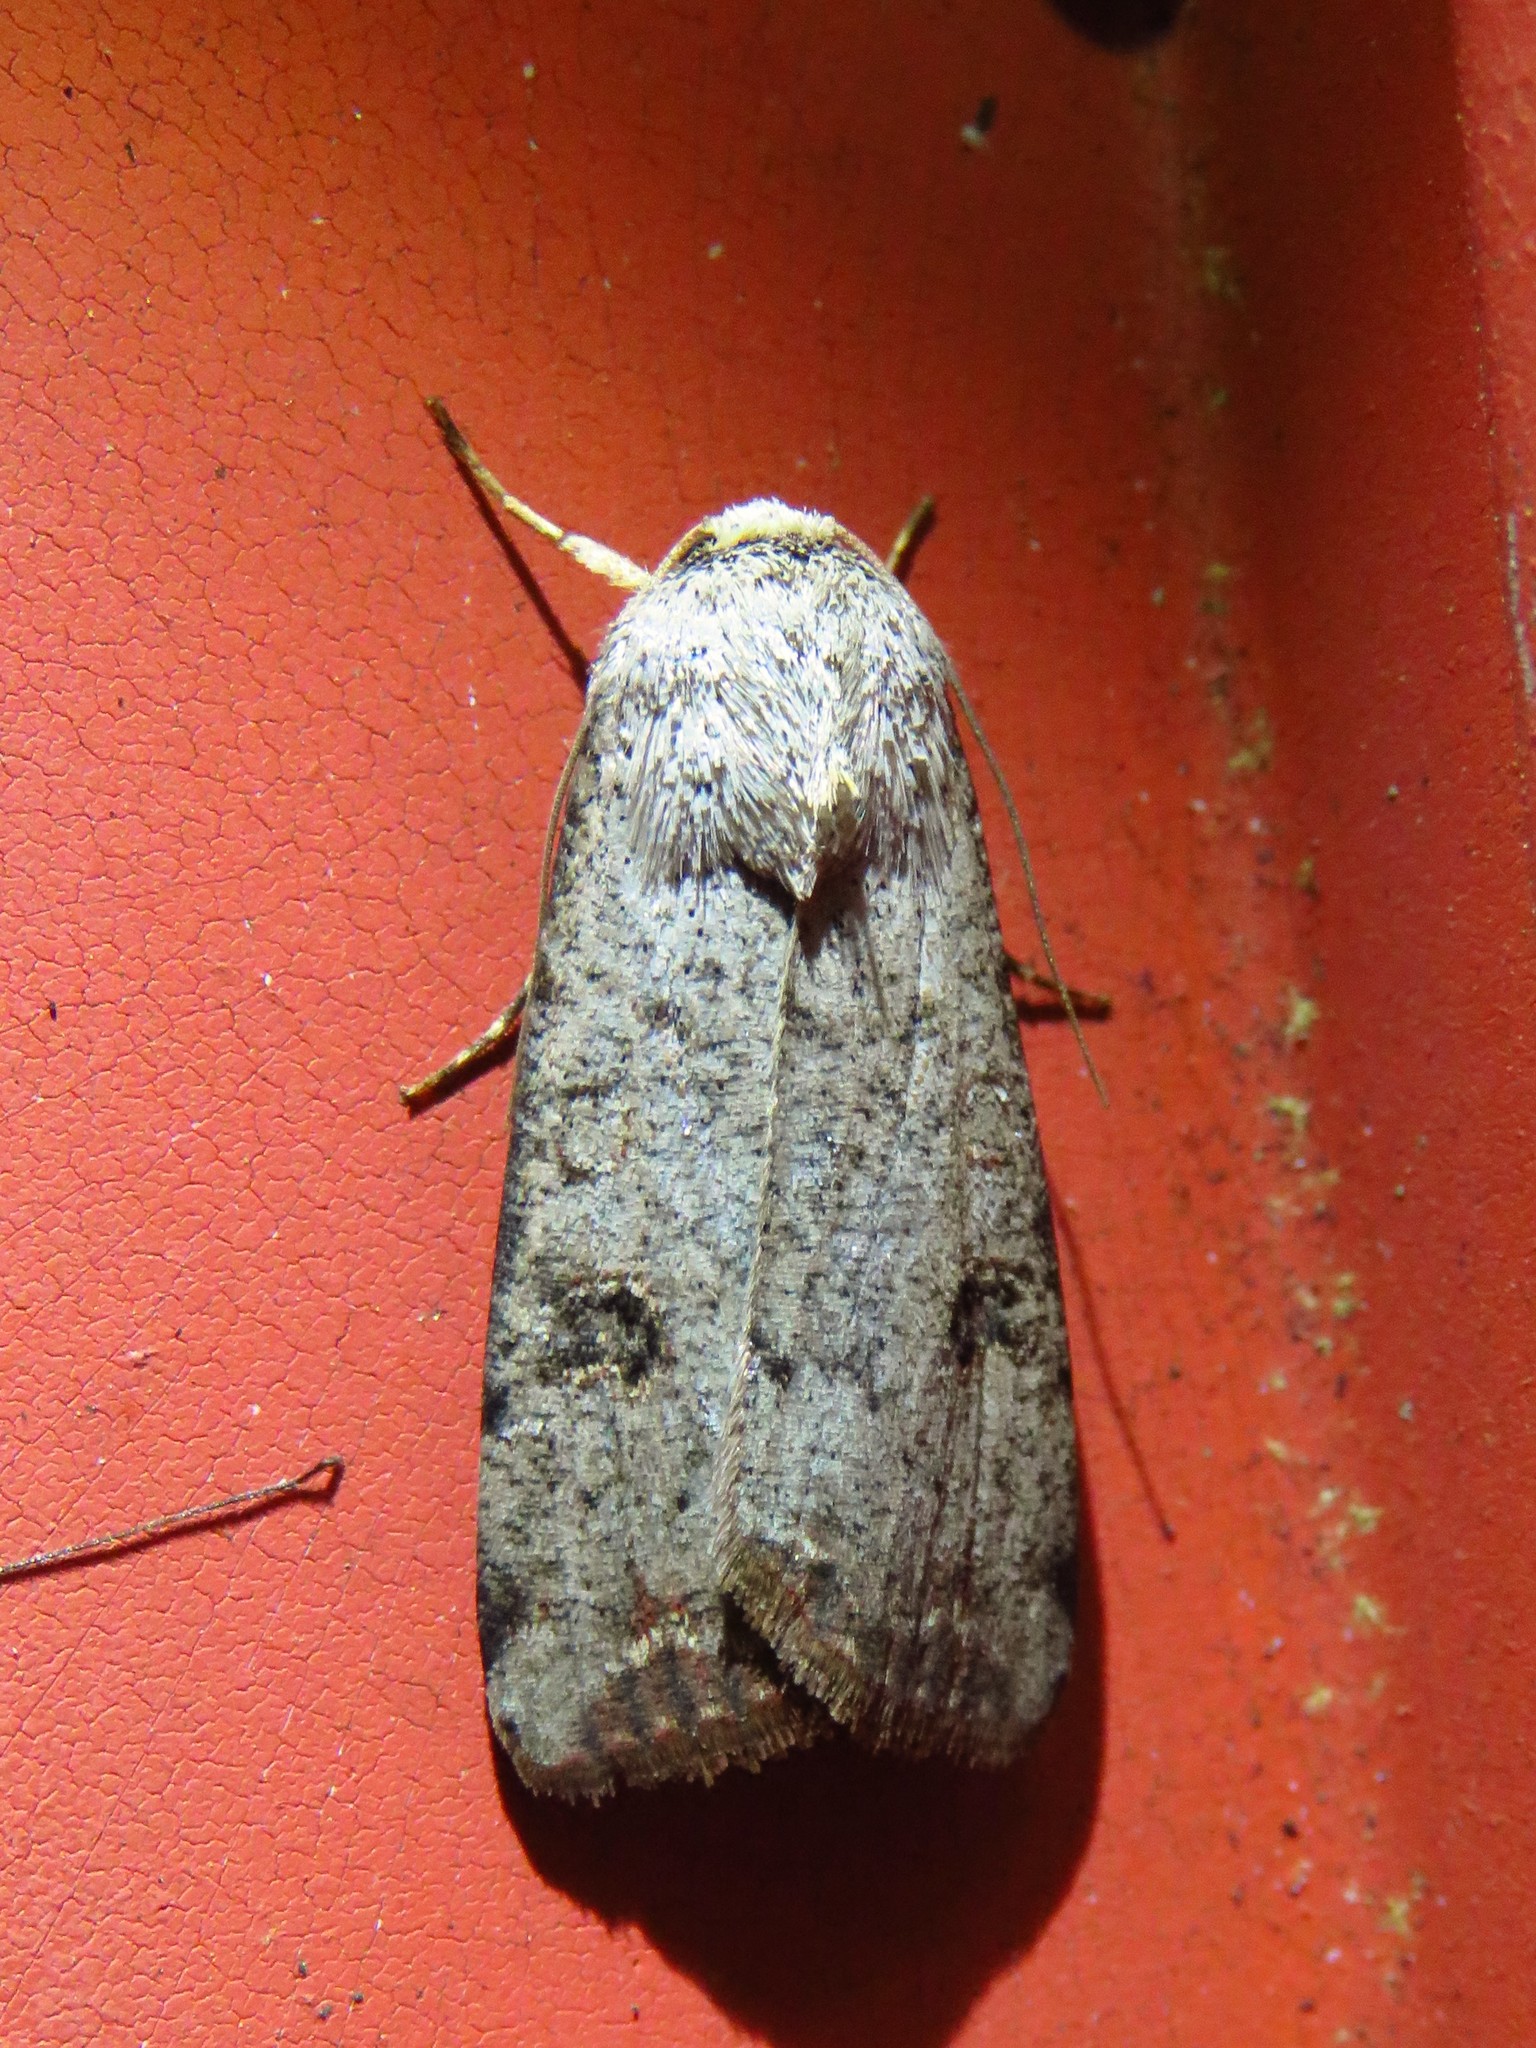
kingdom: Animalia
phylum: Arthropoda
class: Insecta
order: Lepidoptera
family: Noctuidae
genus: Anicla
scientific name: Anicla infecta
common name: Green cutworm
